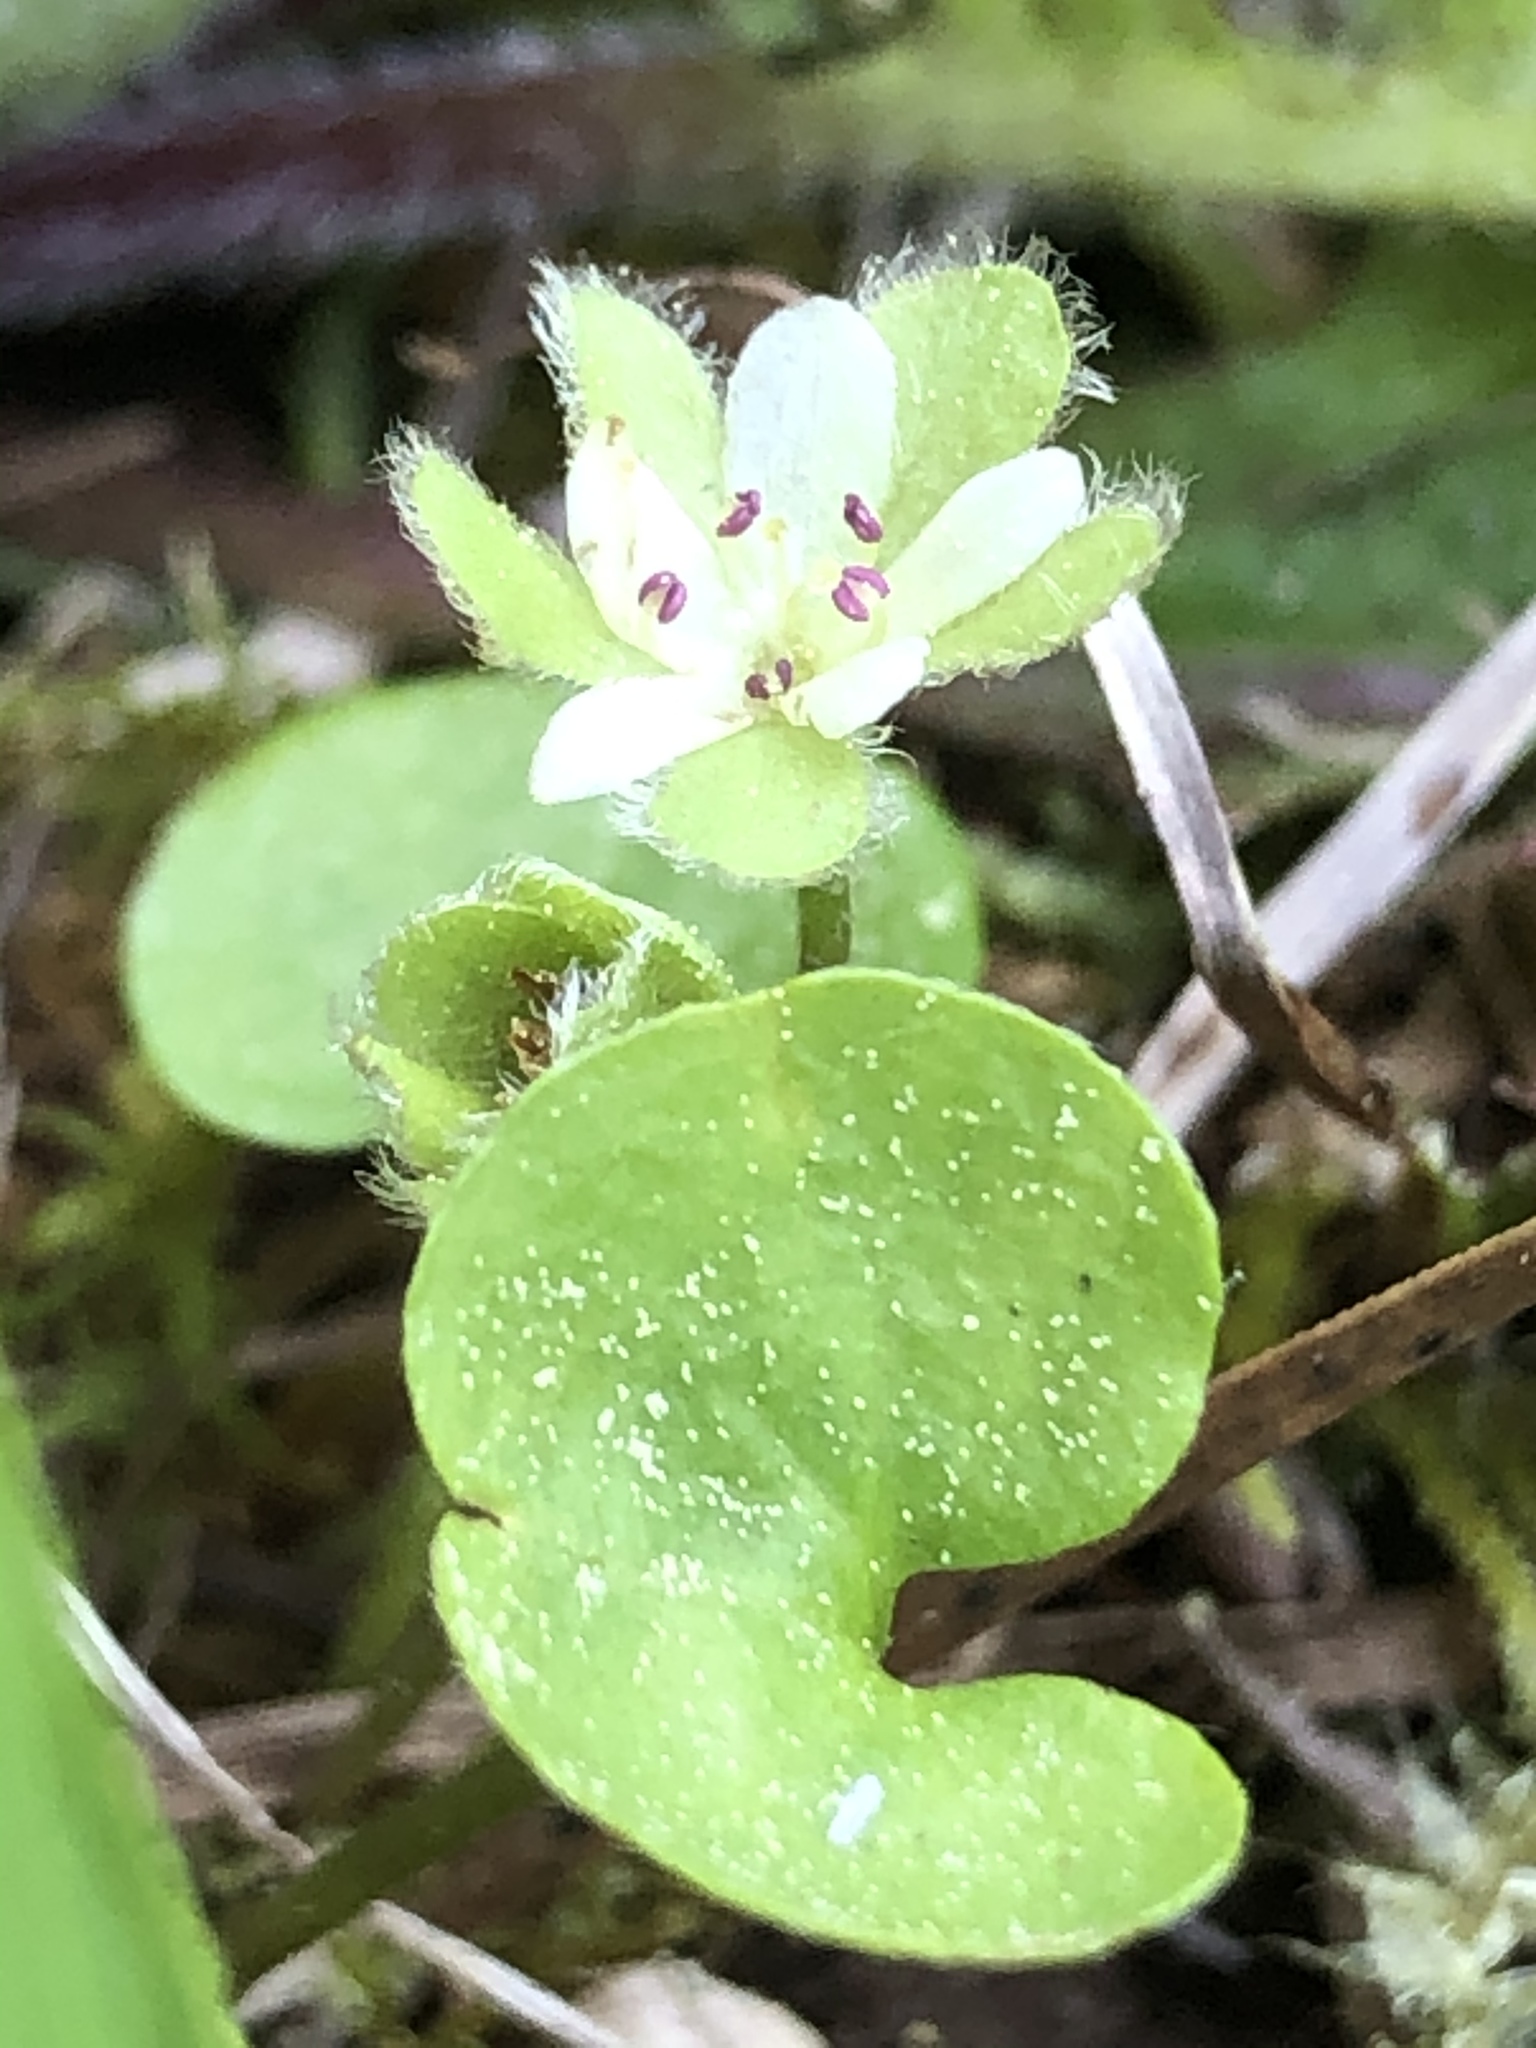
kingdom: Plantae
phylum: Tracheophyta
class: Magnoliopsida
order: Solanales
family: Convolvulaceae
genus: Dichondra
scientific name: Dichondra carolinensis
